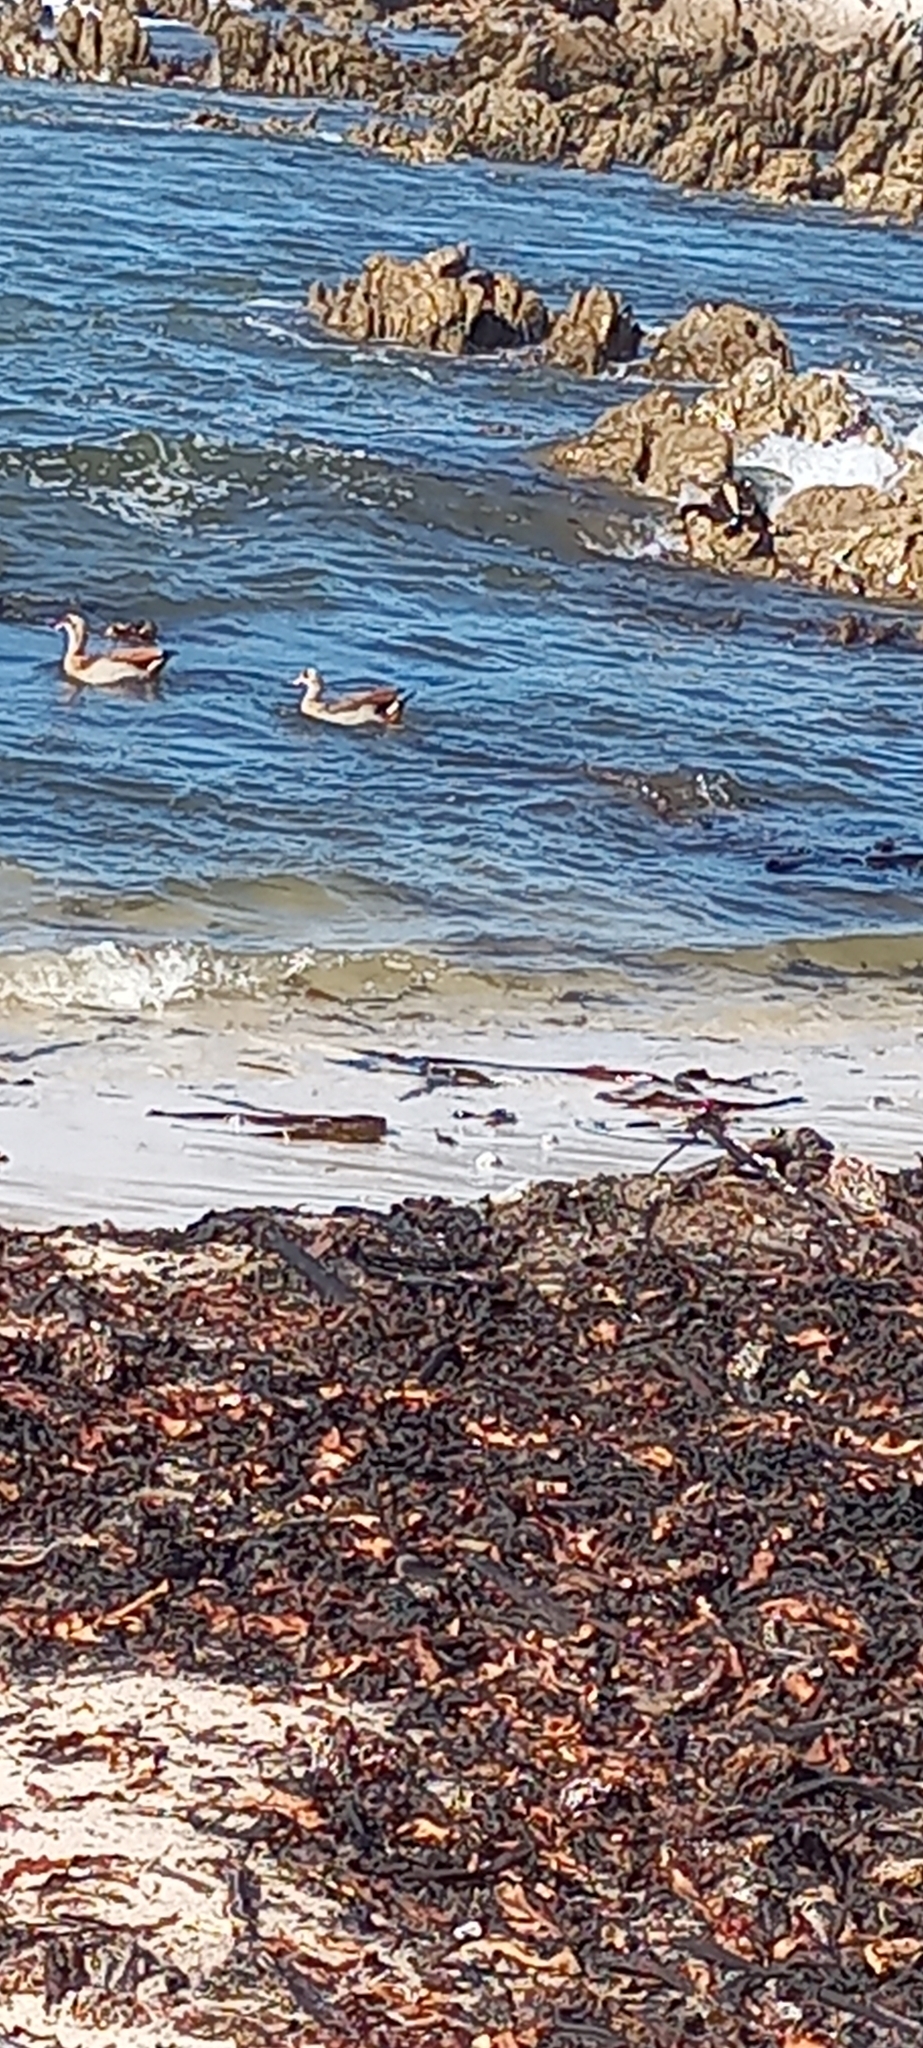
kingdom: Animalia
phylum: Chordata
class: Aves
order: Anseriformes
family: Anatidae
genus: Alopochen
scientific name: Alopochen aegyptiaca
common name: Egyptian goose
